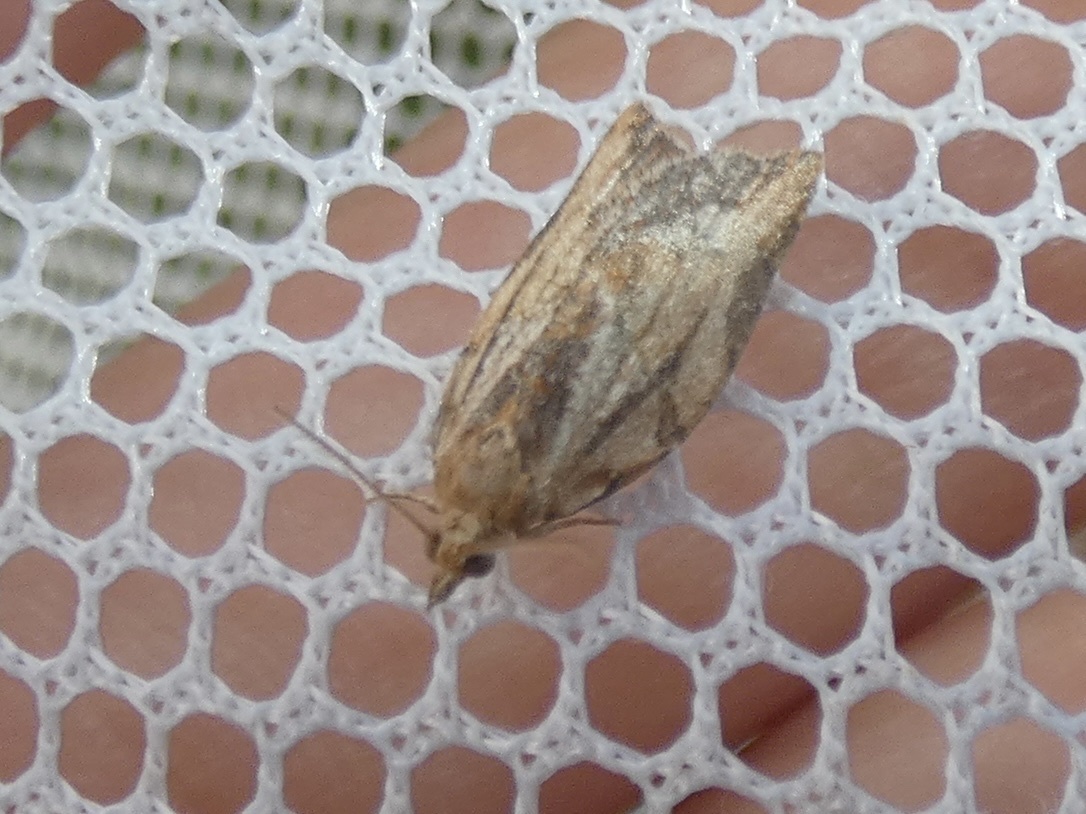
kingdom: Animalia
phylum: Arthropoda
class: Insecta
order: Lepidoptera
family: Tortricidae
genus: Epiphyas
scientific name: Epiphyas postvittana
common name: Light brown apple moth
